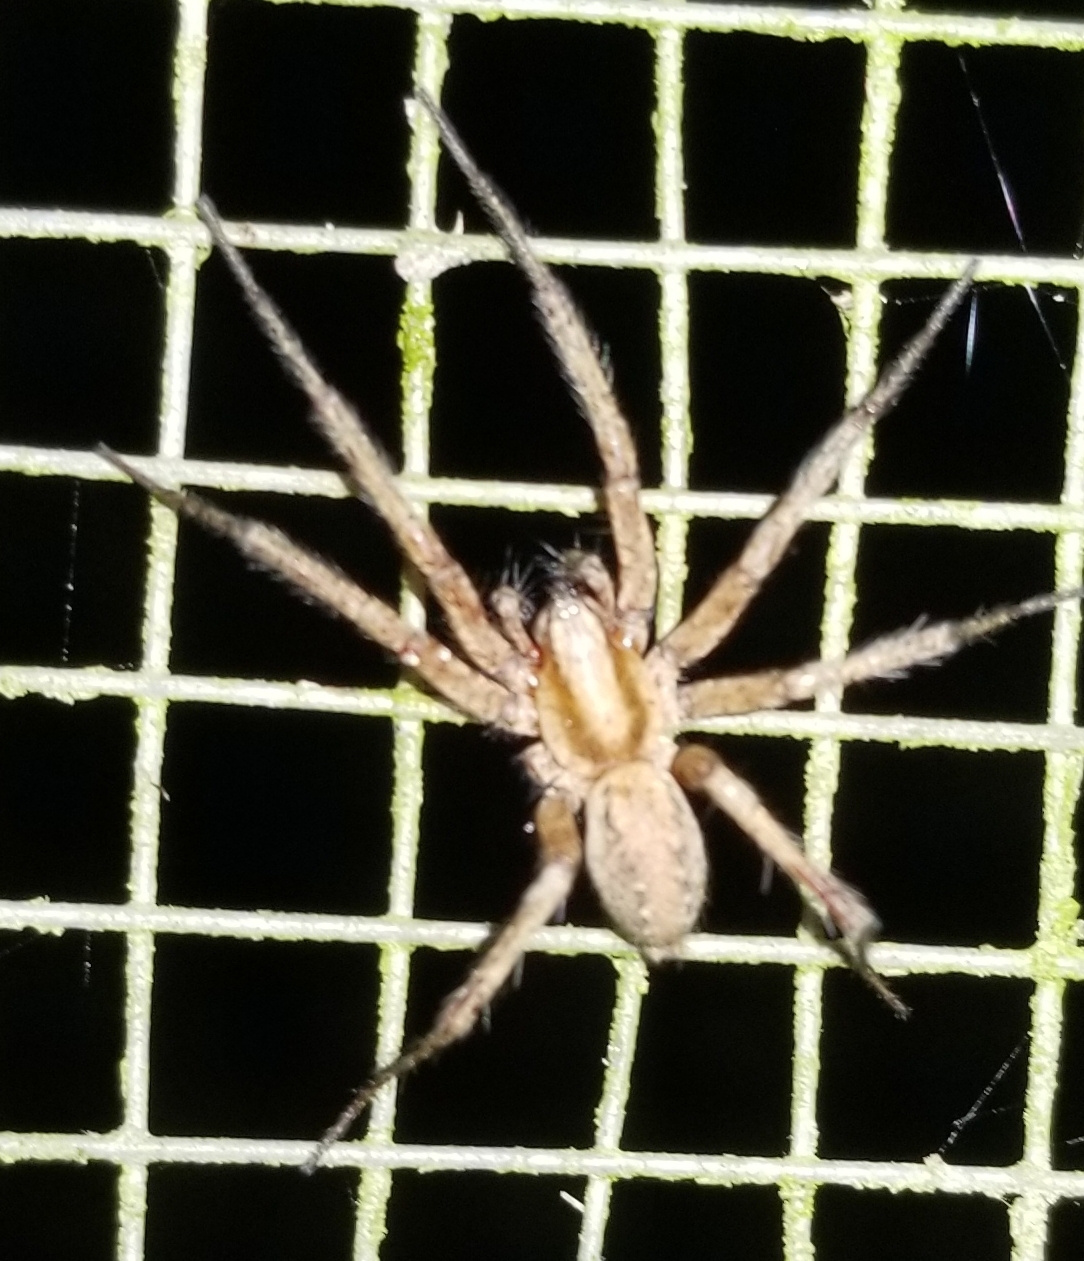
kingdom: Animalia
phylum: Arthropoda
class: Arachnida
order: Araneae
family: Agelenidae
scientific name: Agelenidae
